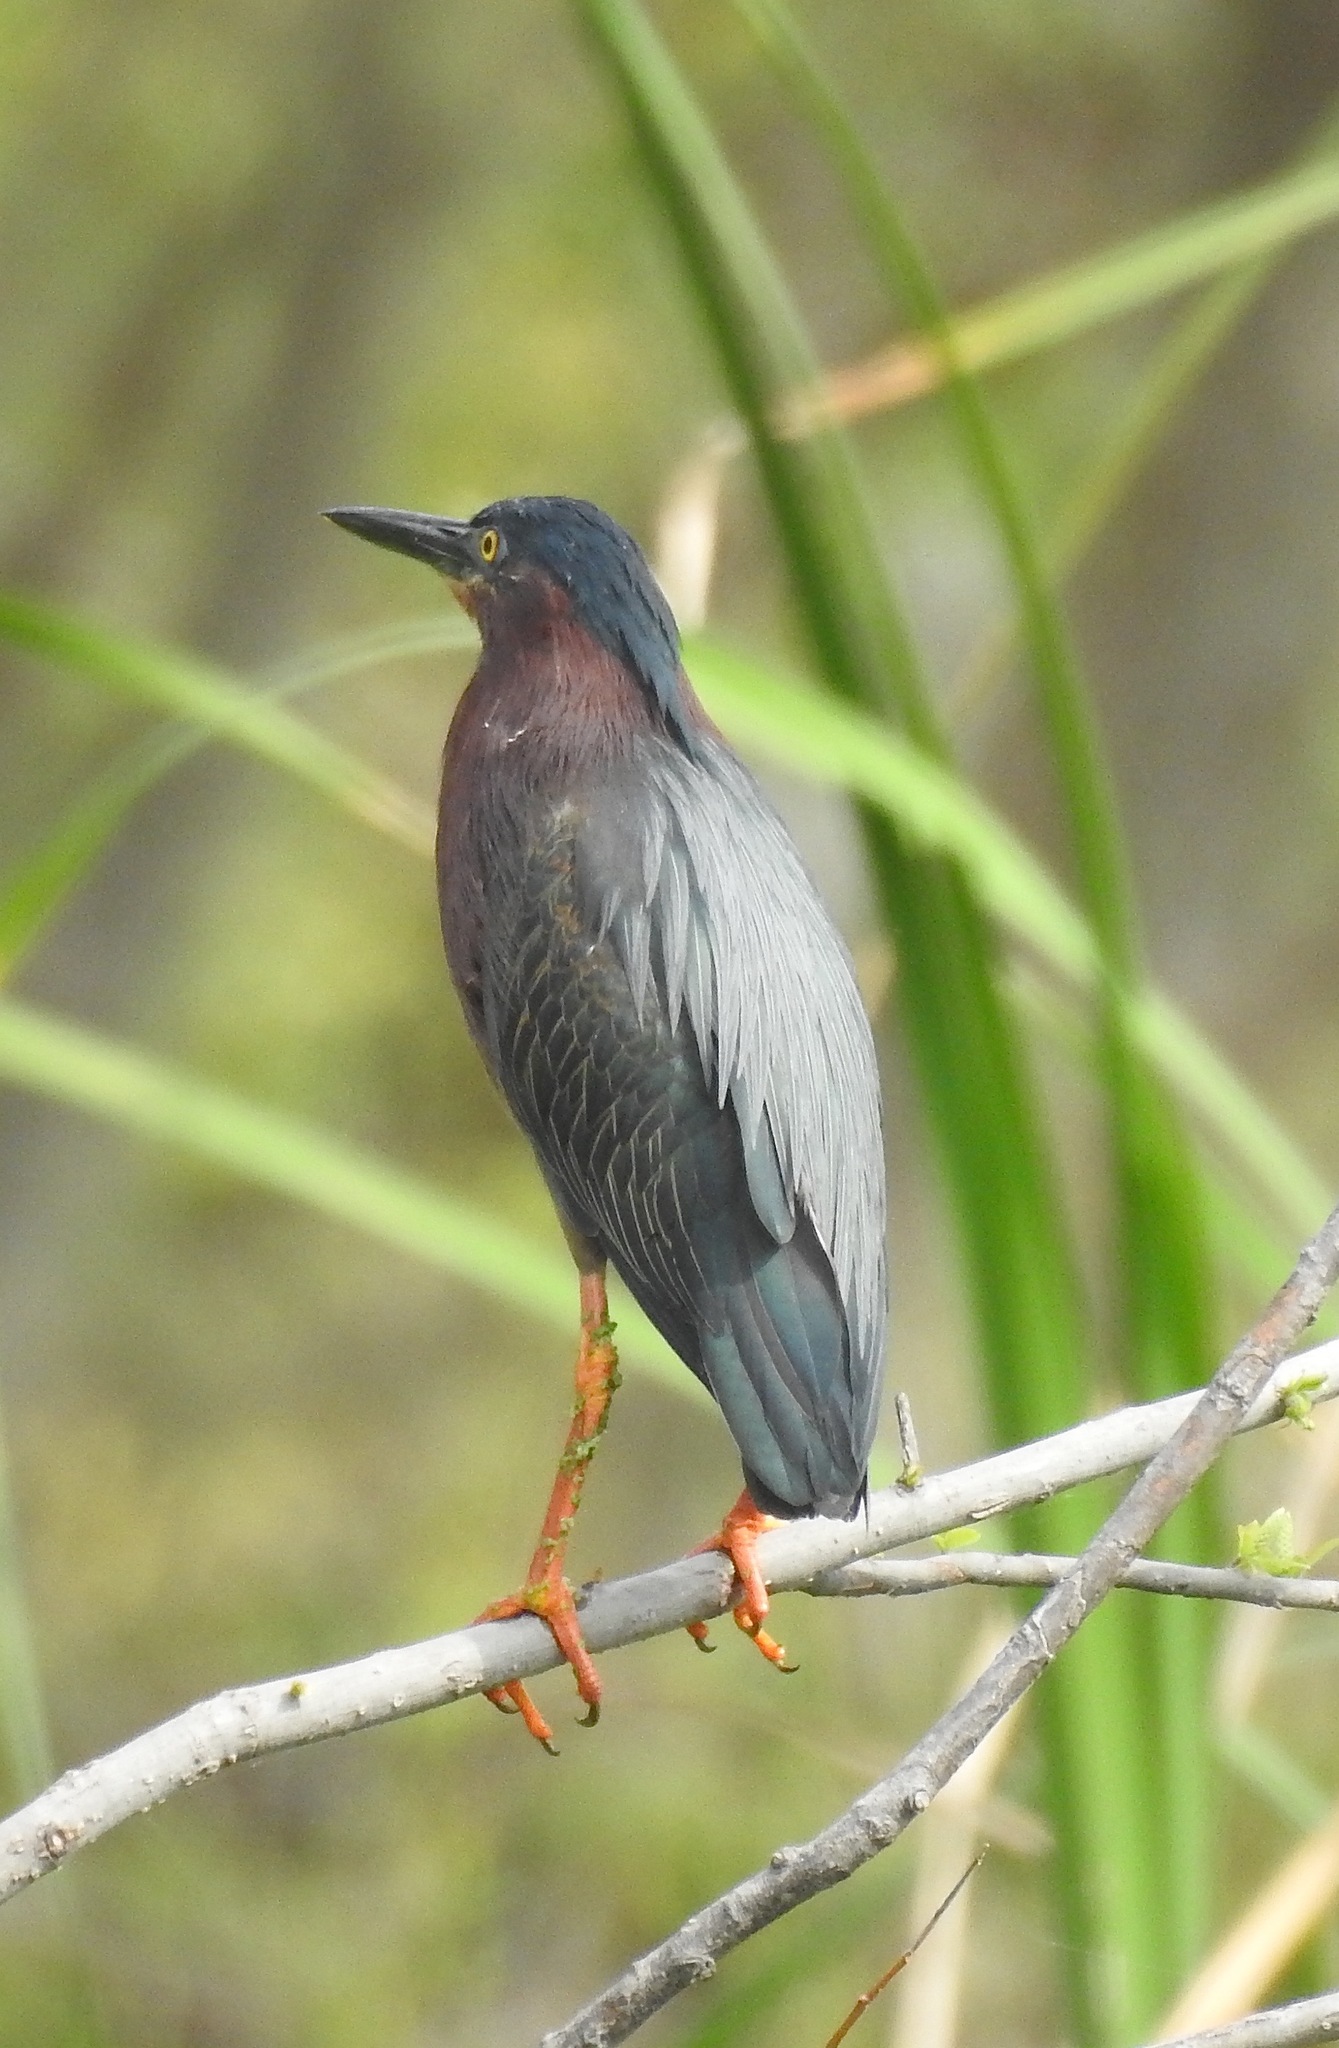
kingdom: Animalia
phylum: Chordata
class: Aves
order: Pelecaniformes
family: Ardeidae
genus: Butorides
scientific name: Butorides virescens
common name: Green heron
